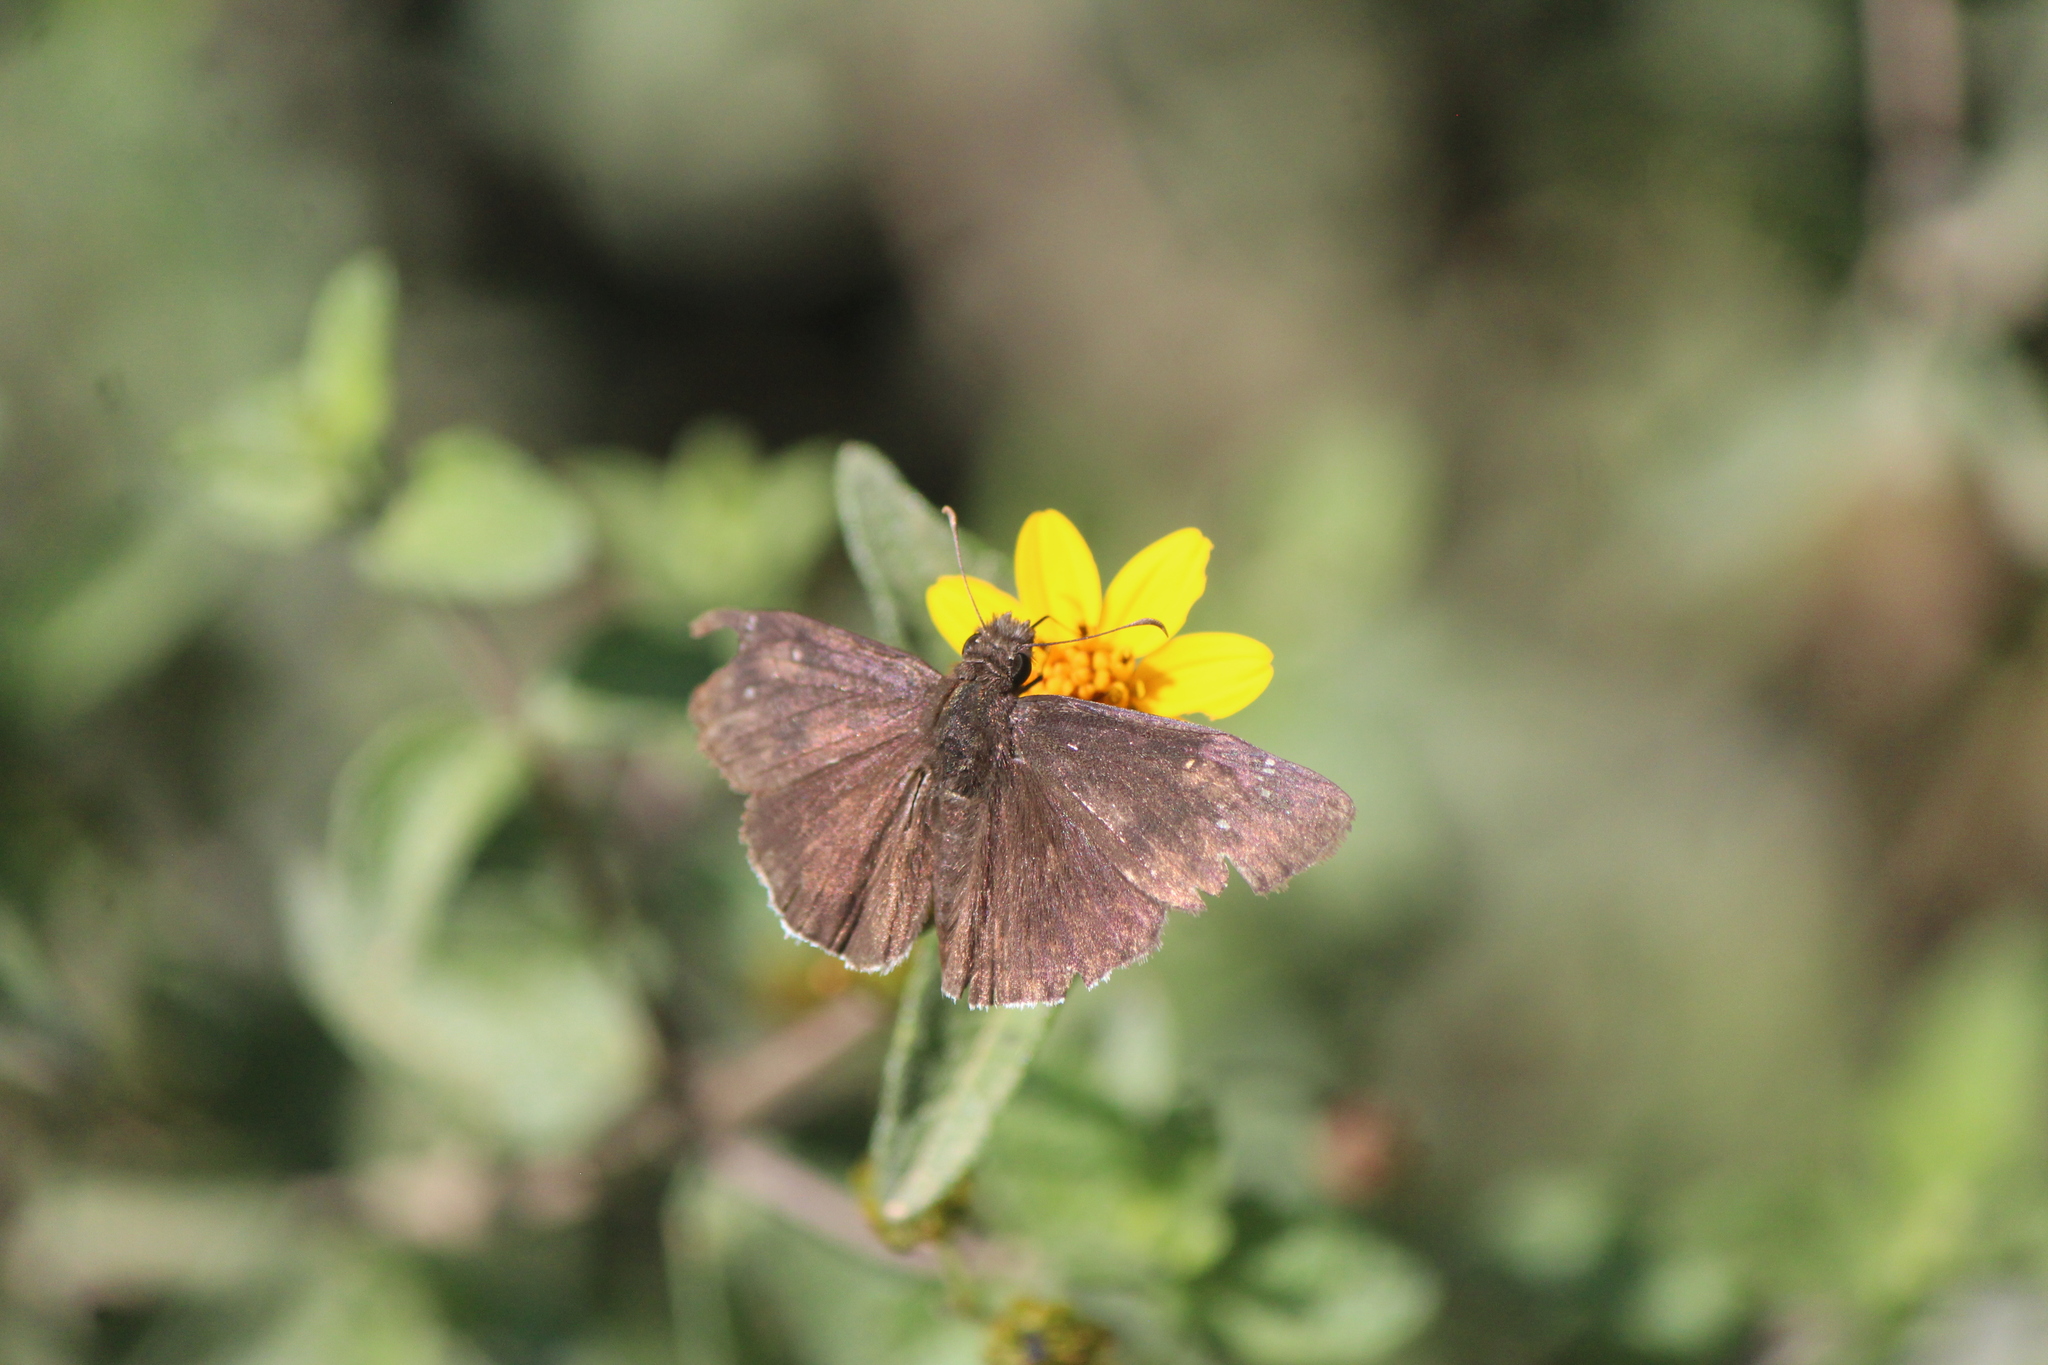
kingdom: Animalia
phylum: Arthropoda
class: Insecta
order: Lepidoptera
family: Hesperiidae
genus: Erynnis
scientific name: Erynnis funeralis
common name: Funereal duskywing
